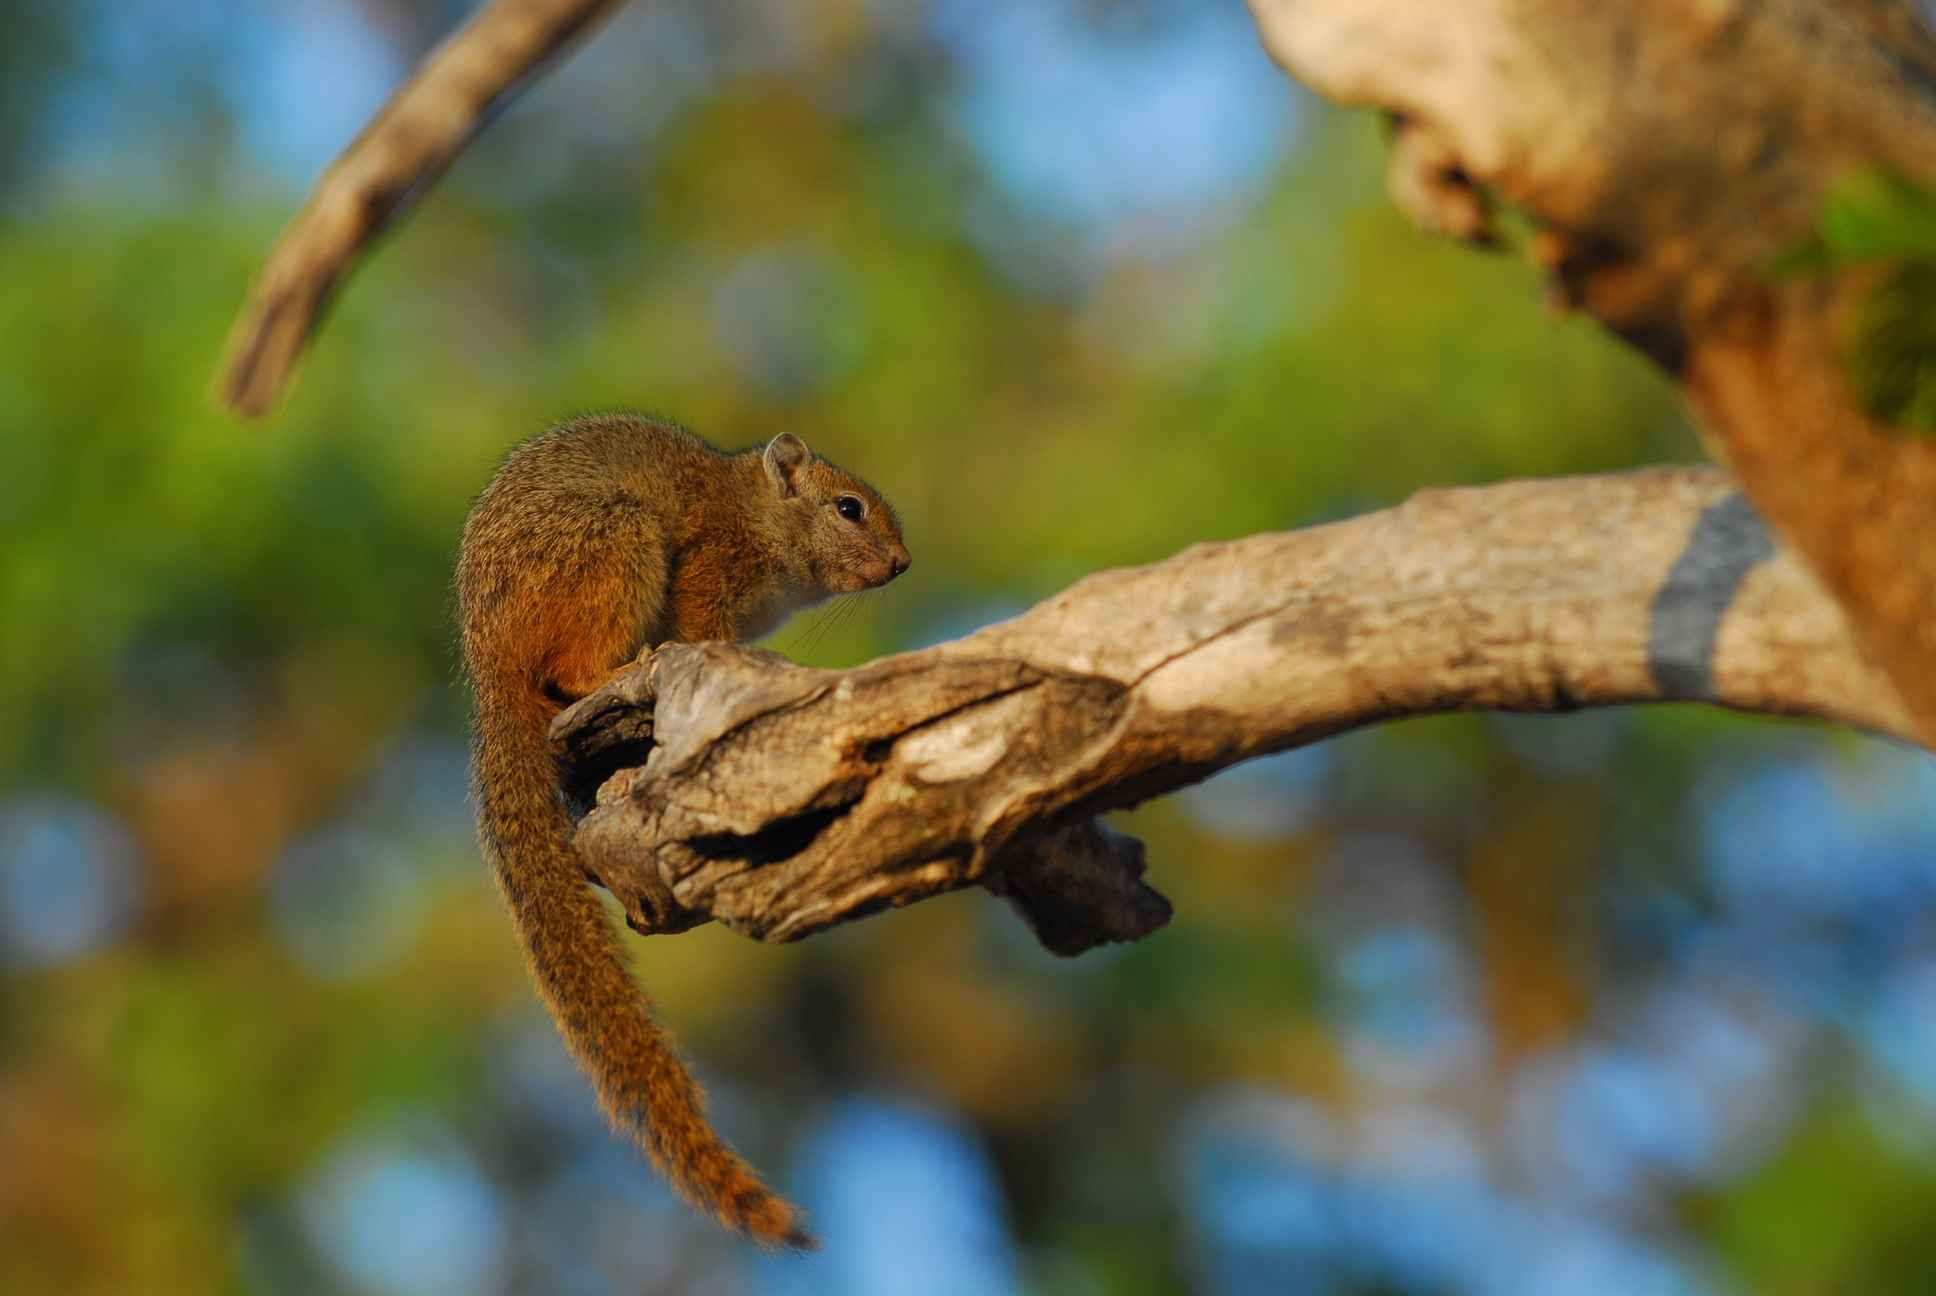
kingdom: Animalia
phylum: Chordata
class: Mammalia
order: Rodentia
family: Sciuridae
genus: Paraxerus
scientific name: Paraxerus cepapi
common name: Smith's bush squirrel
